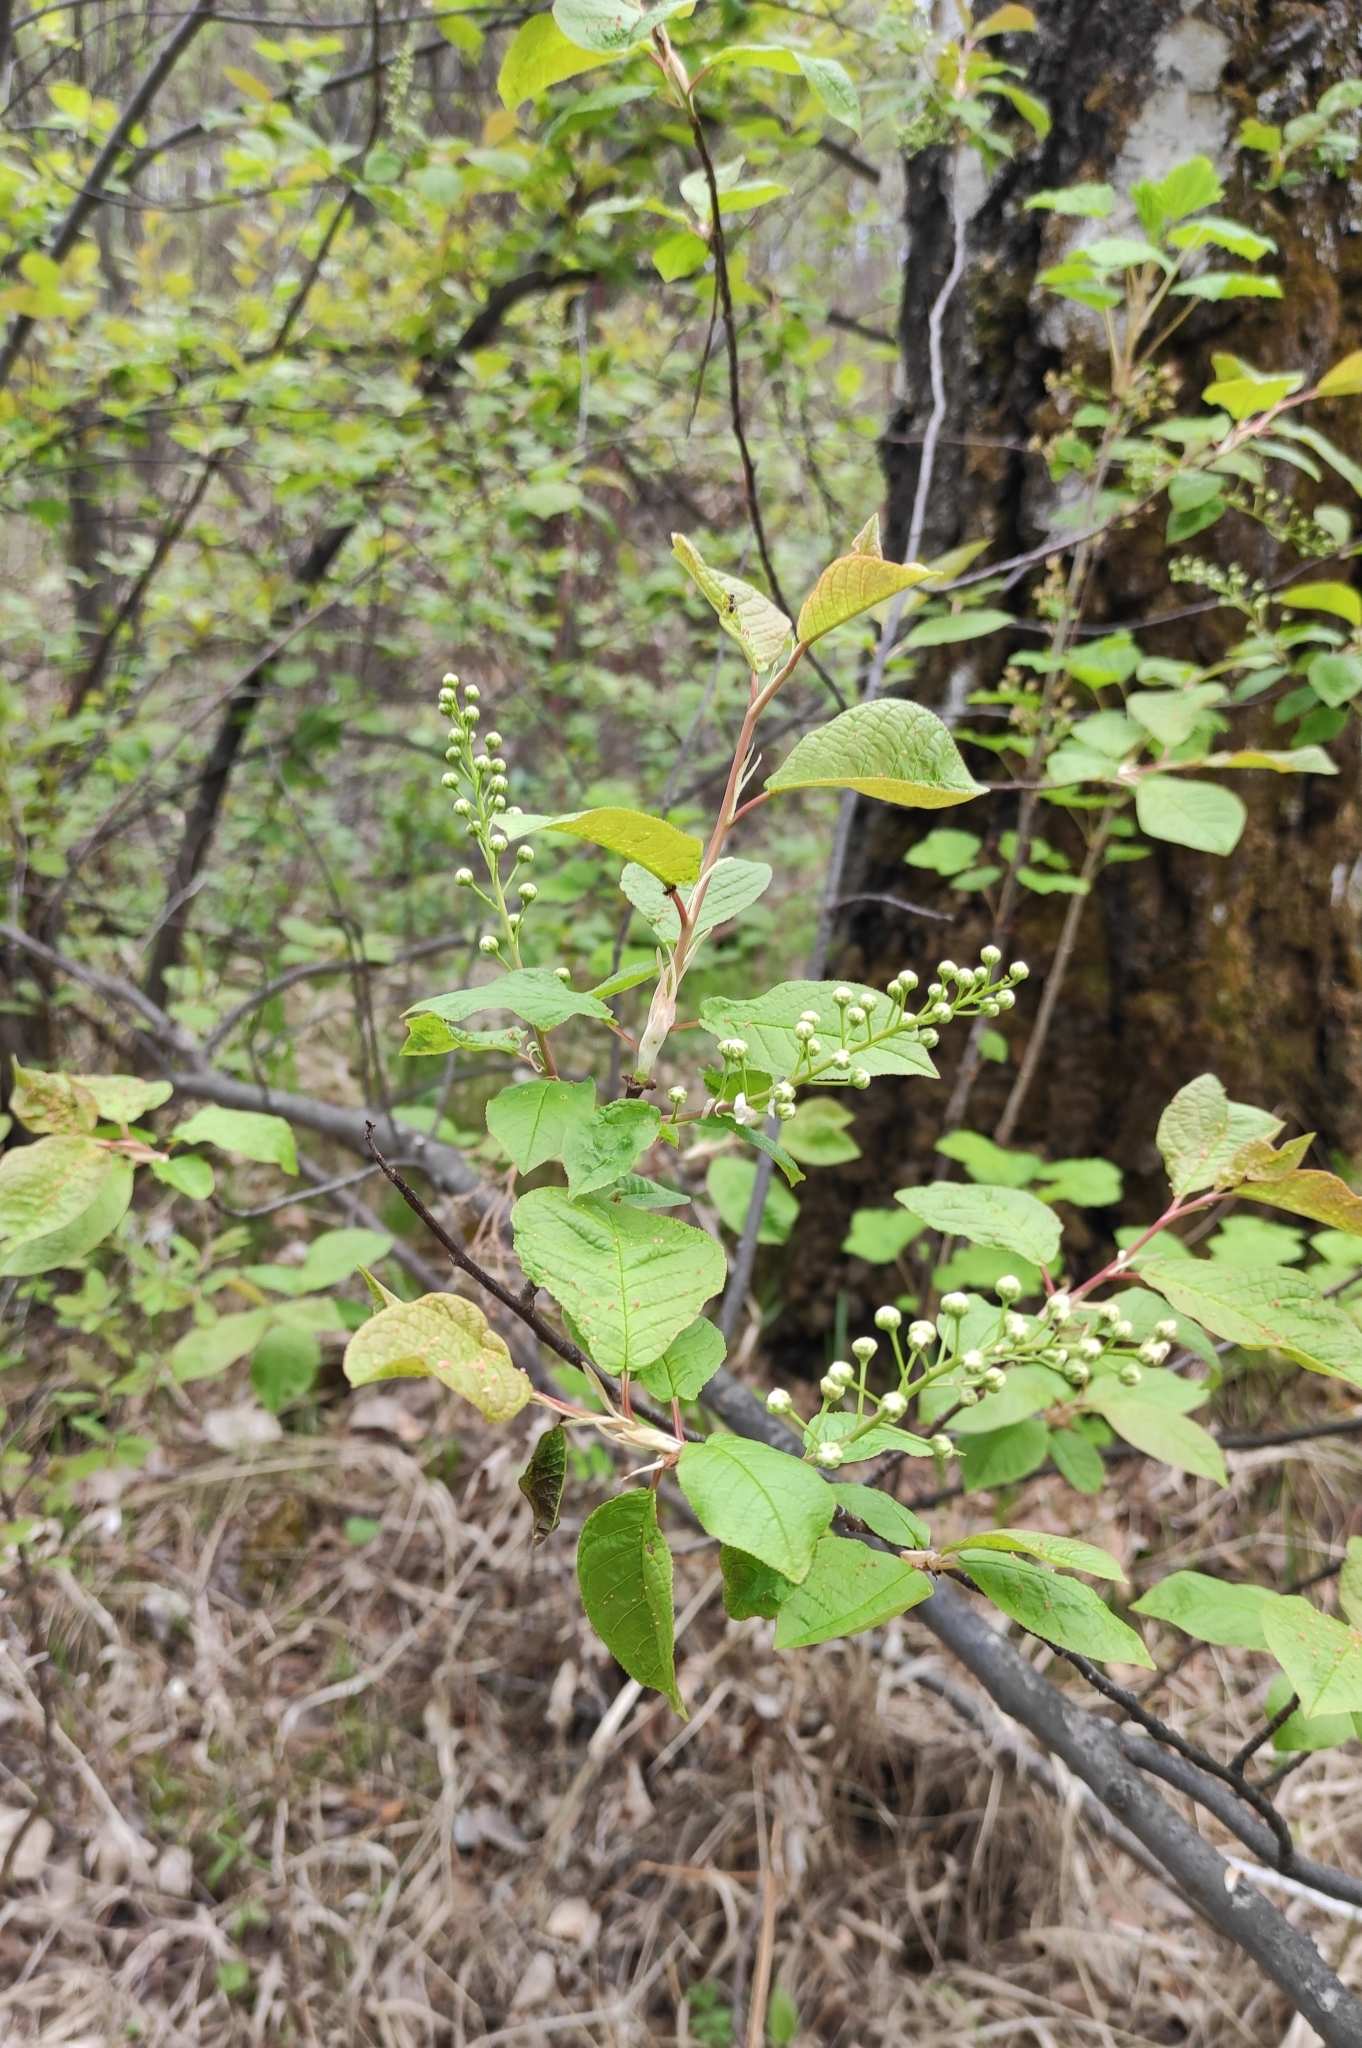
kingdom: Plantae
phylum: Tracheophyta
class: Magnoliopsida
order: Rosales
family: Rosaceae
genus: Prunus
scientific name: Prunus padus
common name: Bird cherry
